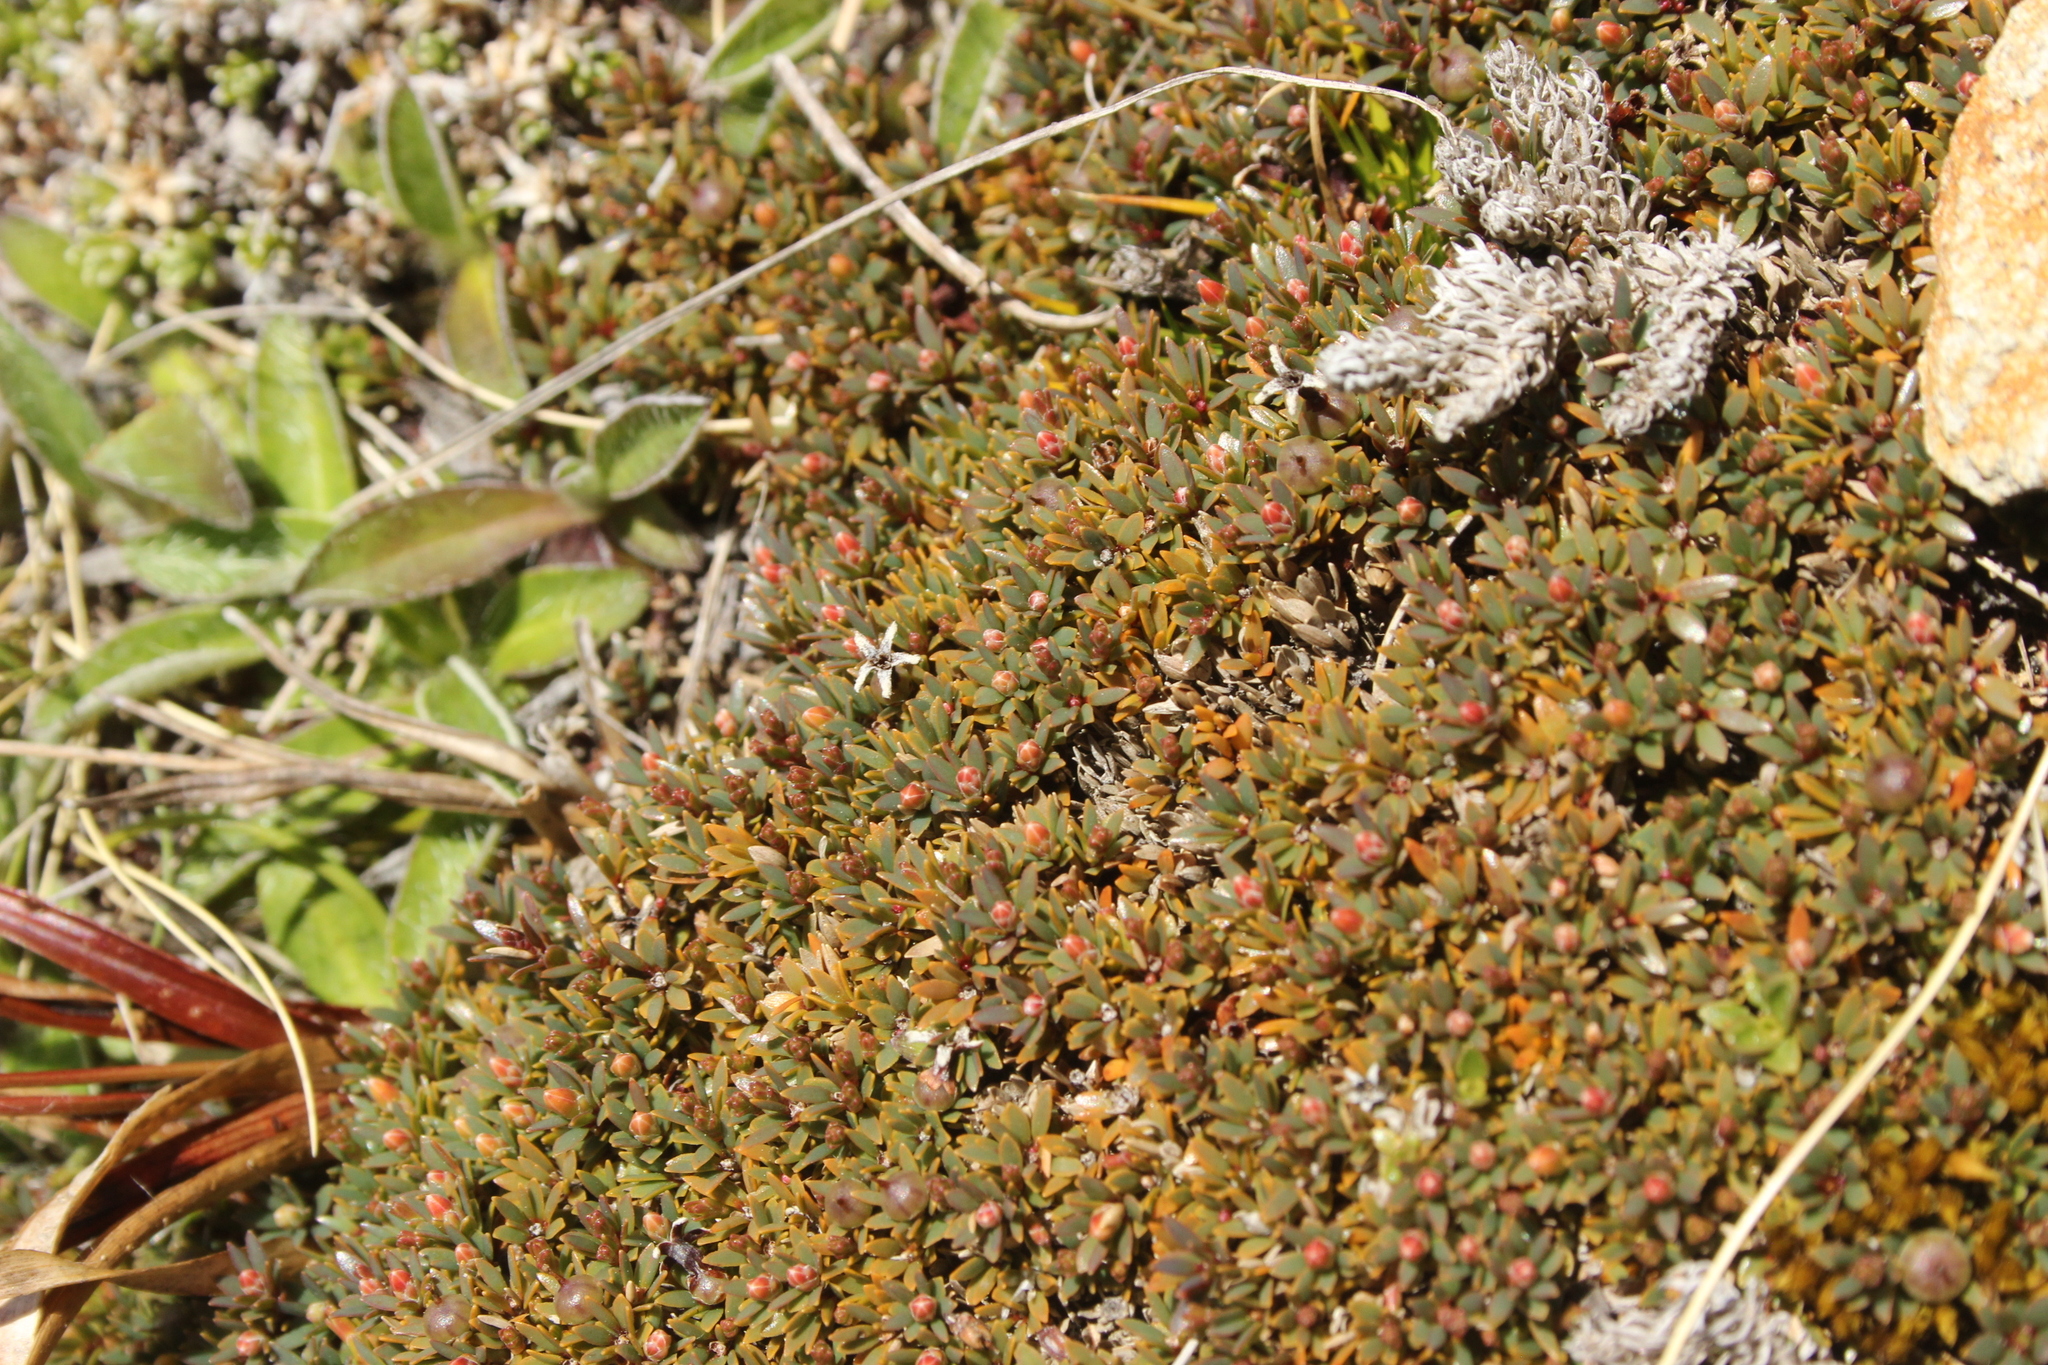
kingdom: Plantae
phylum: Tracheophyta
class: Magnoliopsida
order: Ericales
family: Ericaceae
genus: Pentachondra
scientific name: Pentachondra pumila
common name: Carpet-heath
